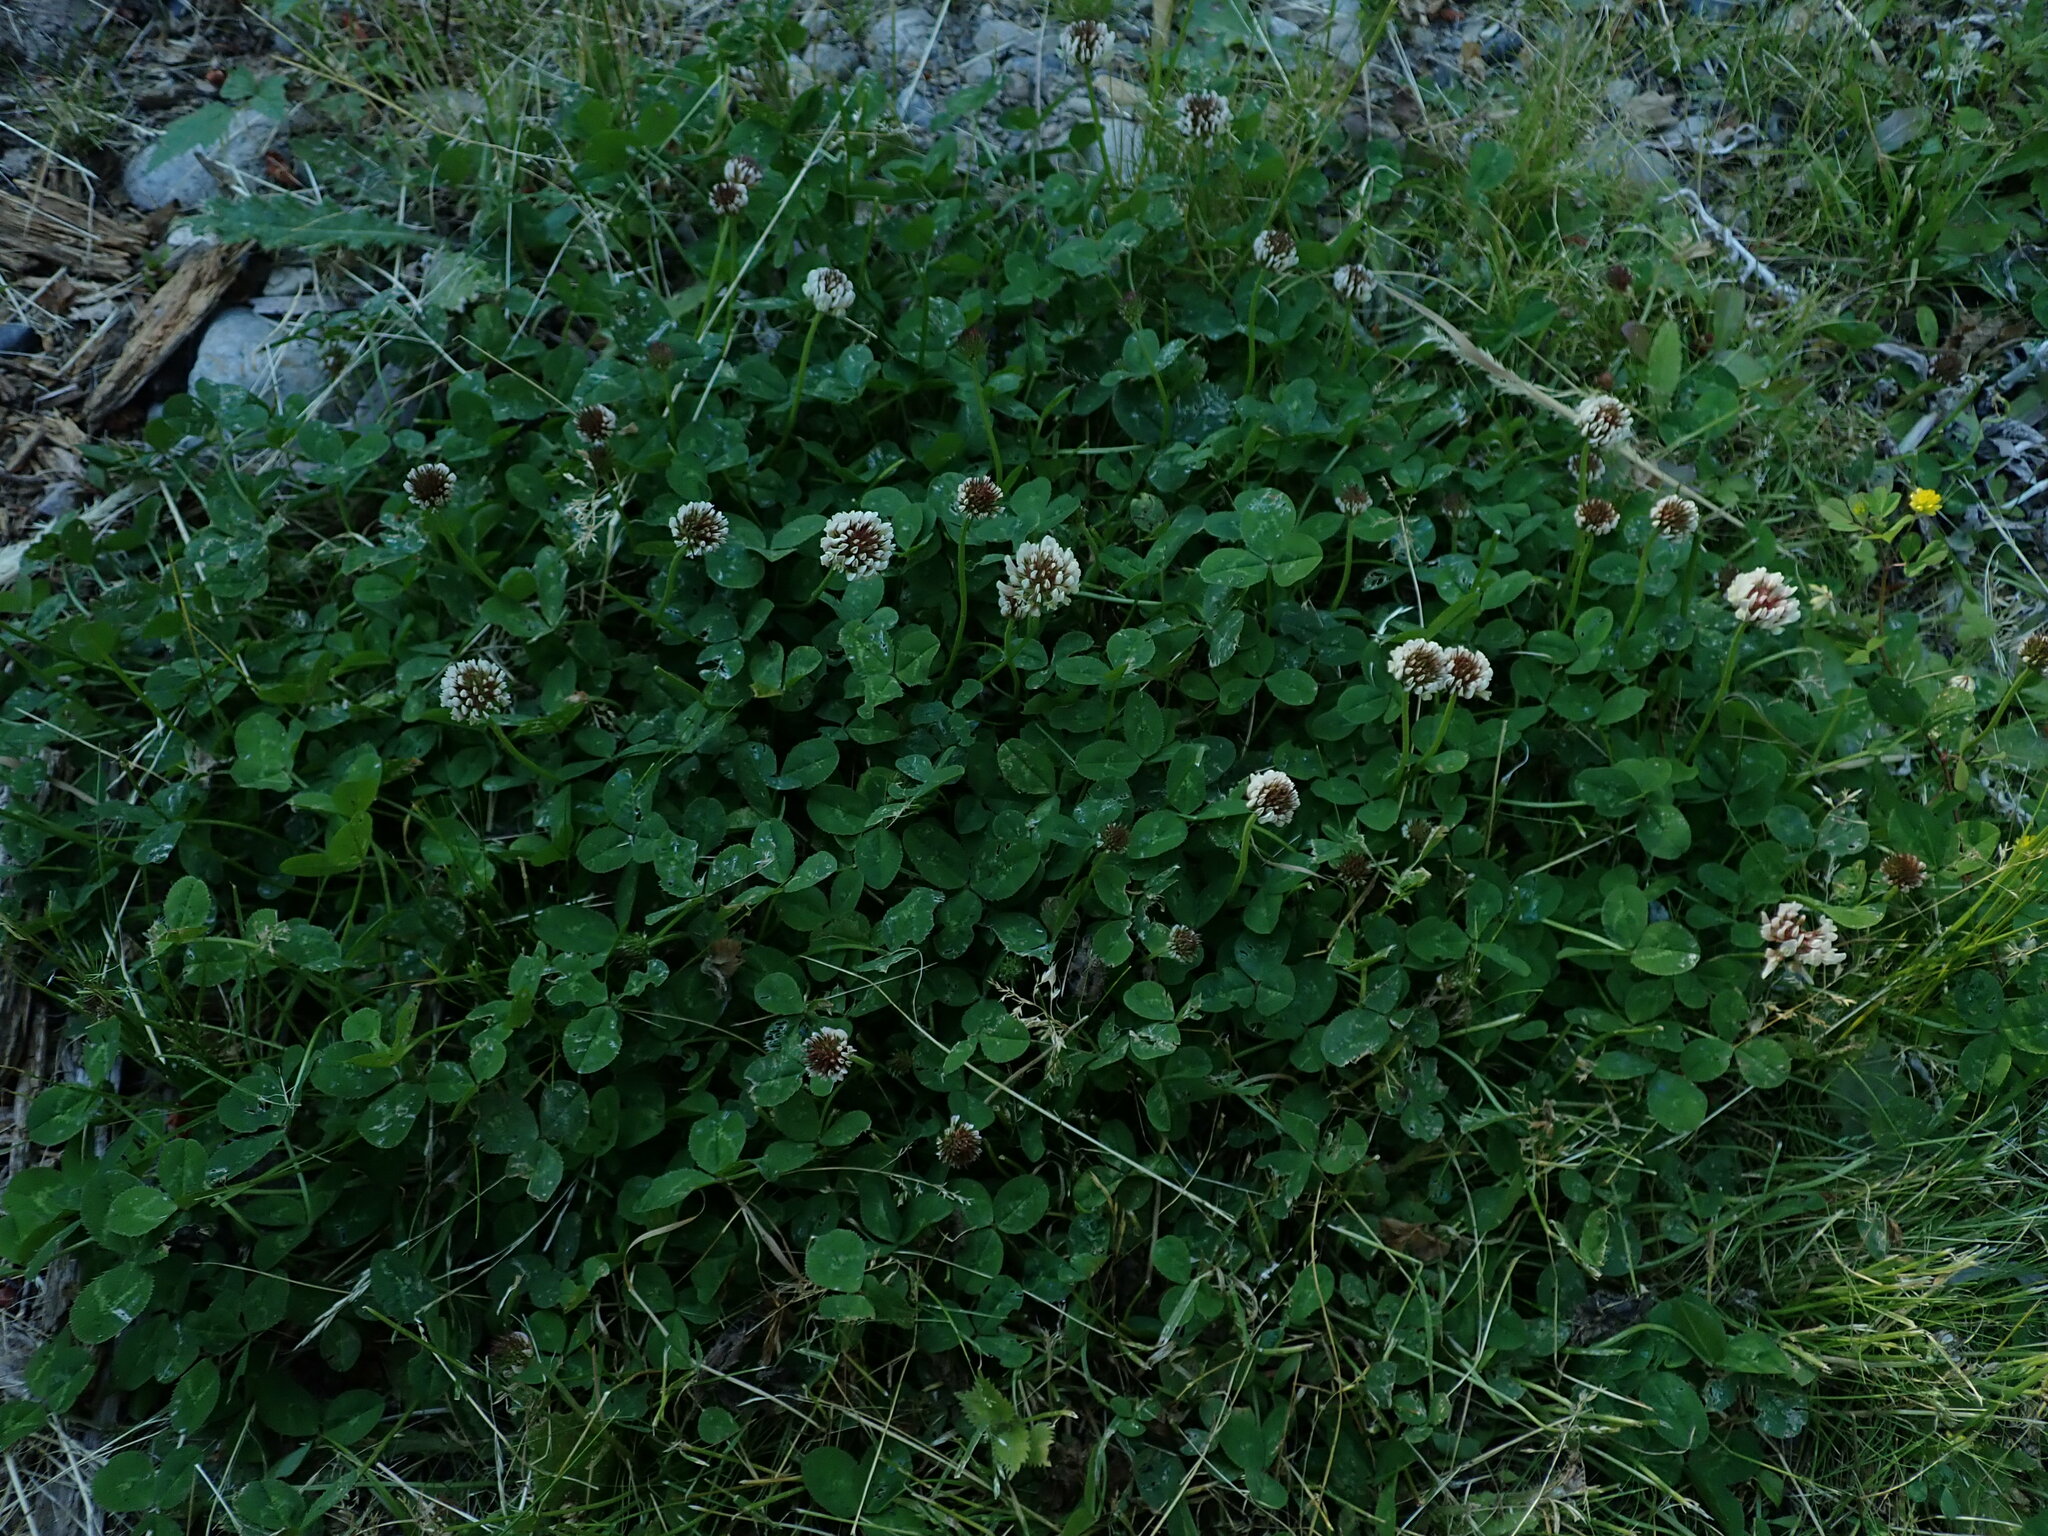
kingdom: Plantae
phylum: Tracheophyta
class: Magnoliopsida
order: Fabales
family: Fabaceae
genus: Trifolium
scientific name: Trifolium repens
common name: White clover
